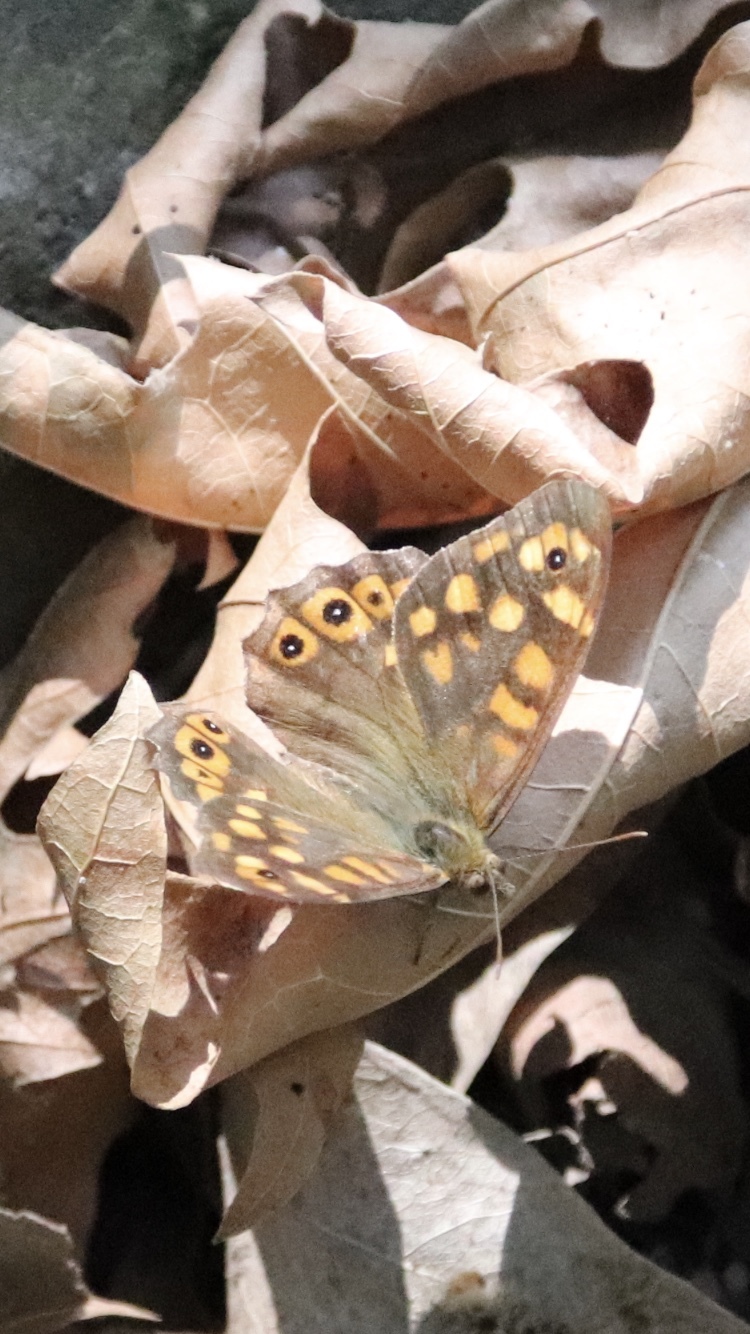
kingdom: Animalia
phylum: Arthropoda
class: Insecta
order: Lepidoptera
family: Nymphalidae
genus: Pararge
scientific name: Pararge aegeria
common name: Speckled wood
